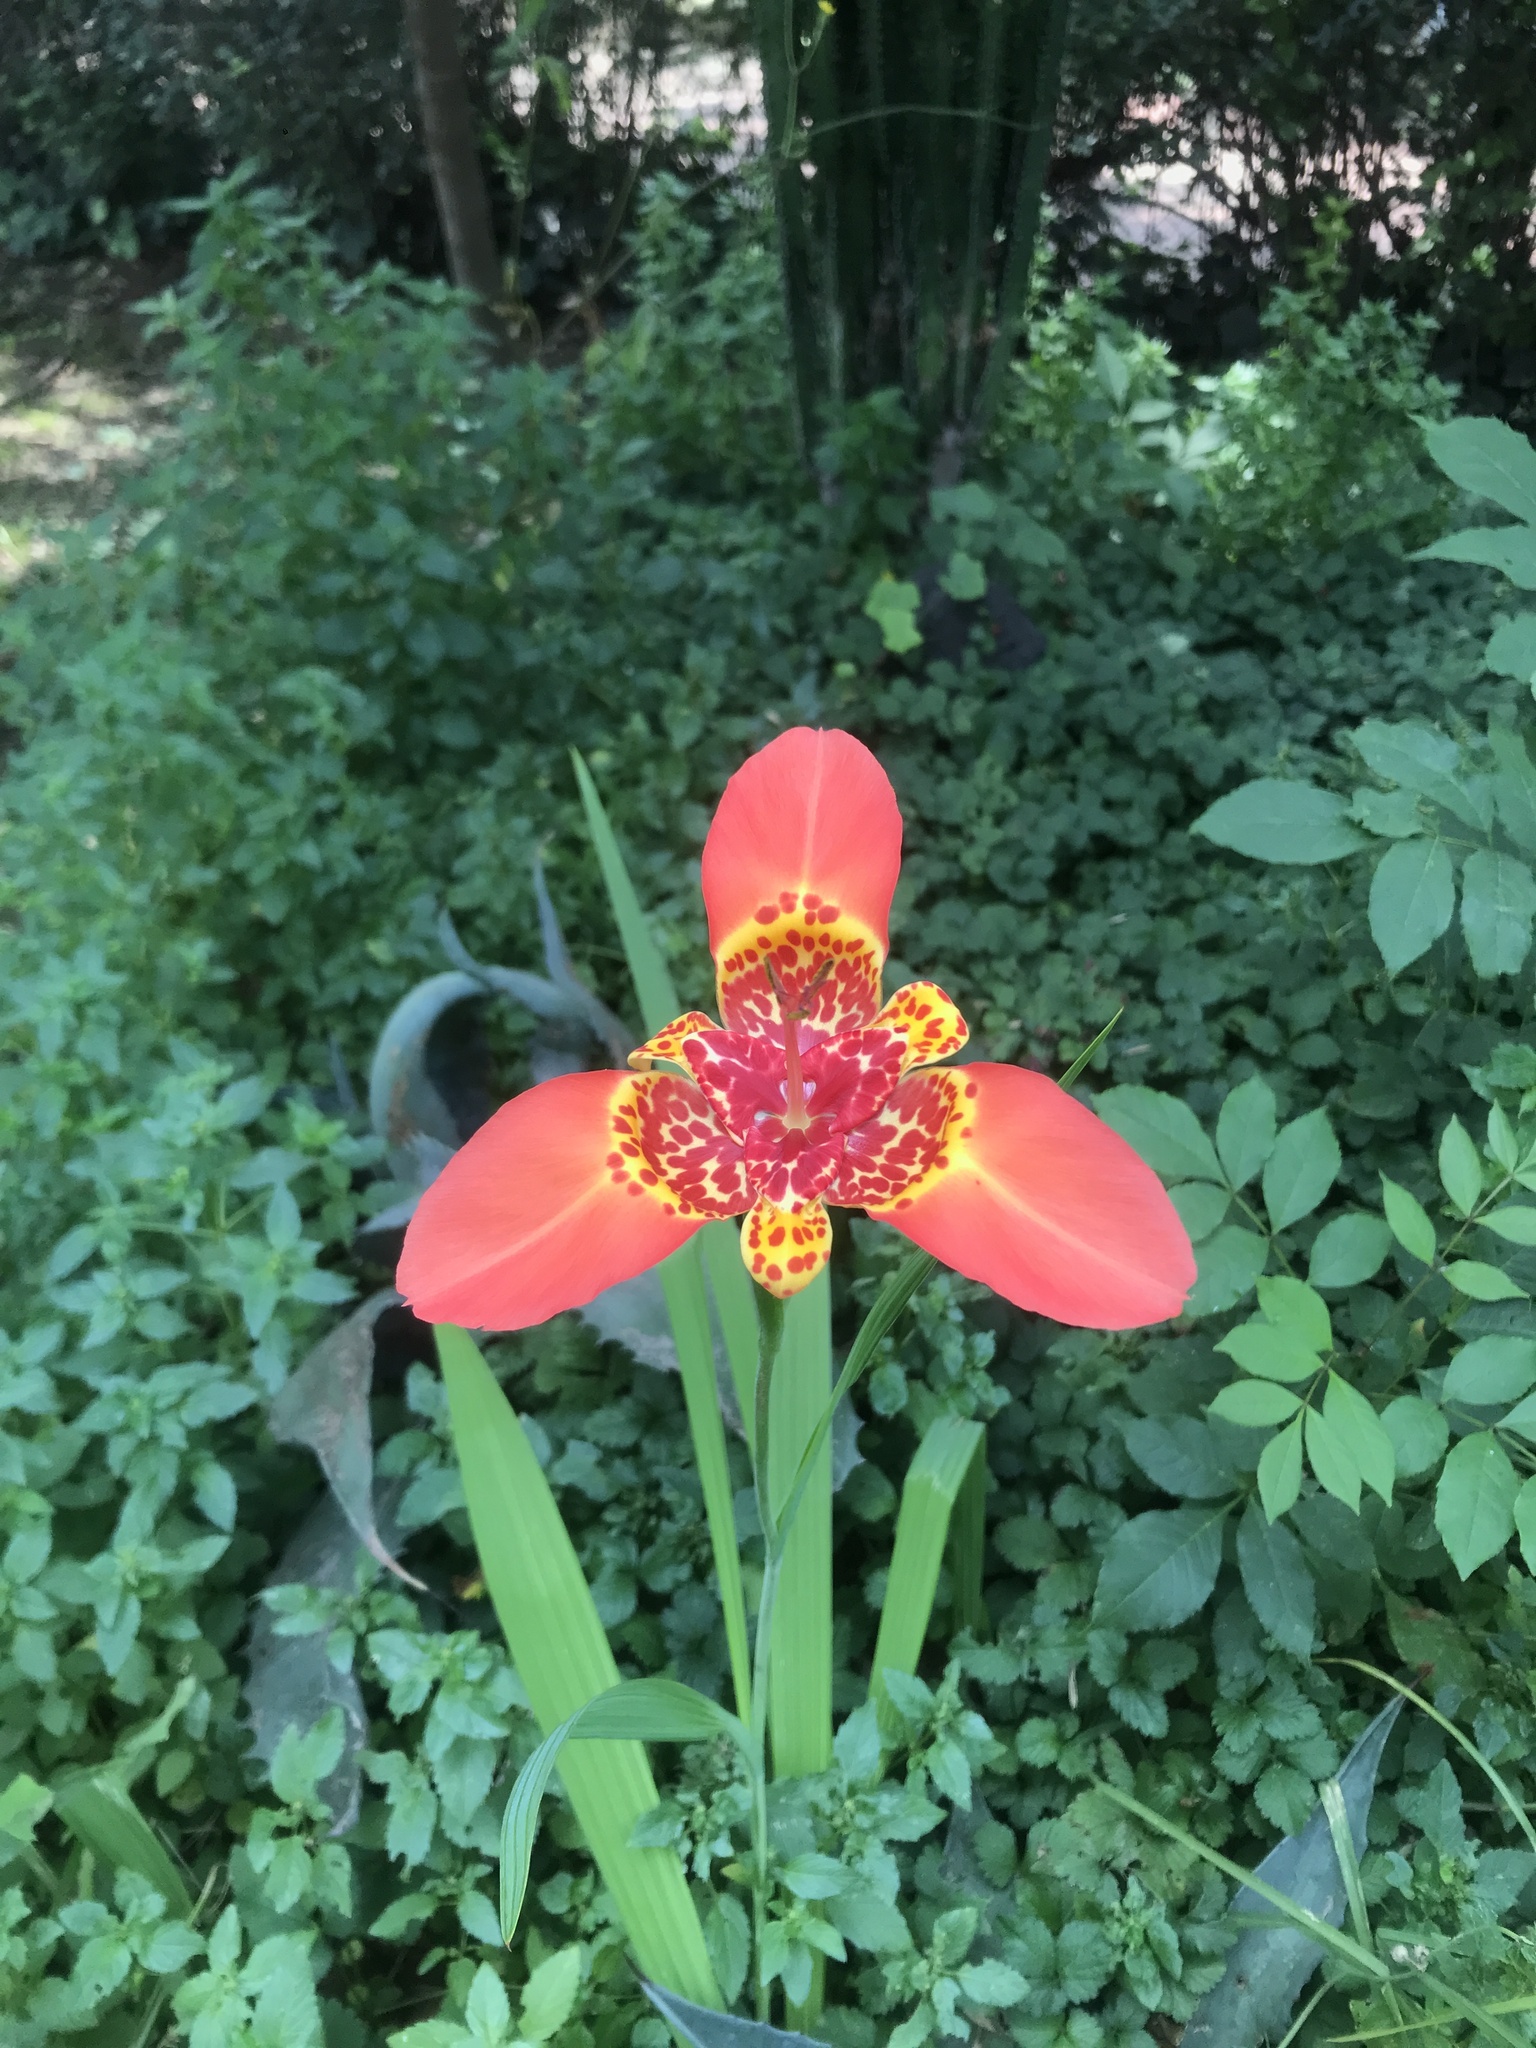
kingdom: Plantae
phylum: Tracheophyta
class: Liliopsida
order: Asparagales
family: Iridaceae
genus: Tigridia
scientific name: Tigridia pavonia
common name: Peacock-flower
